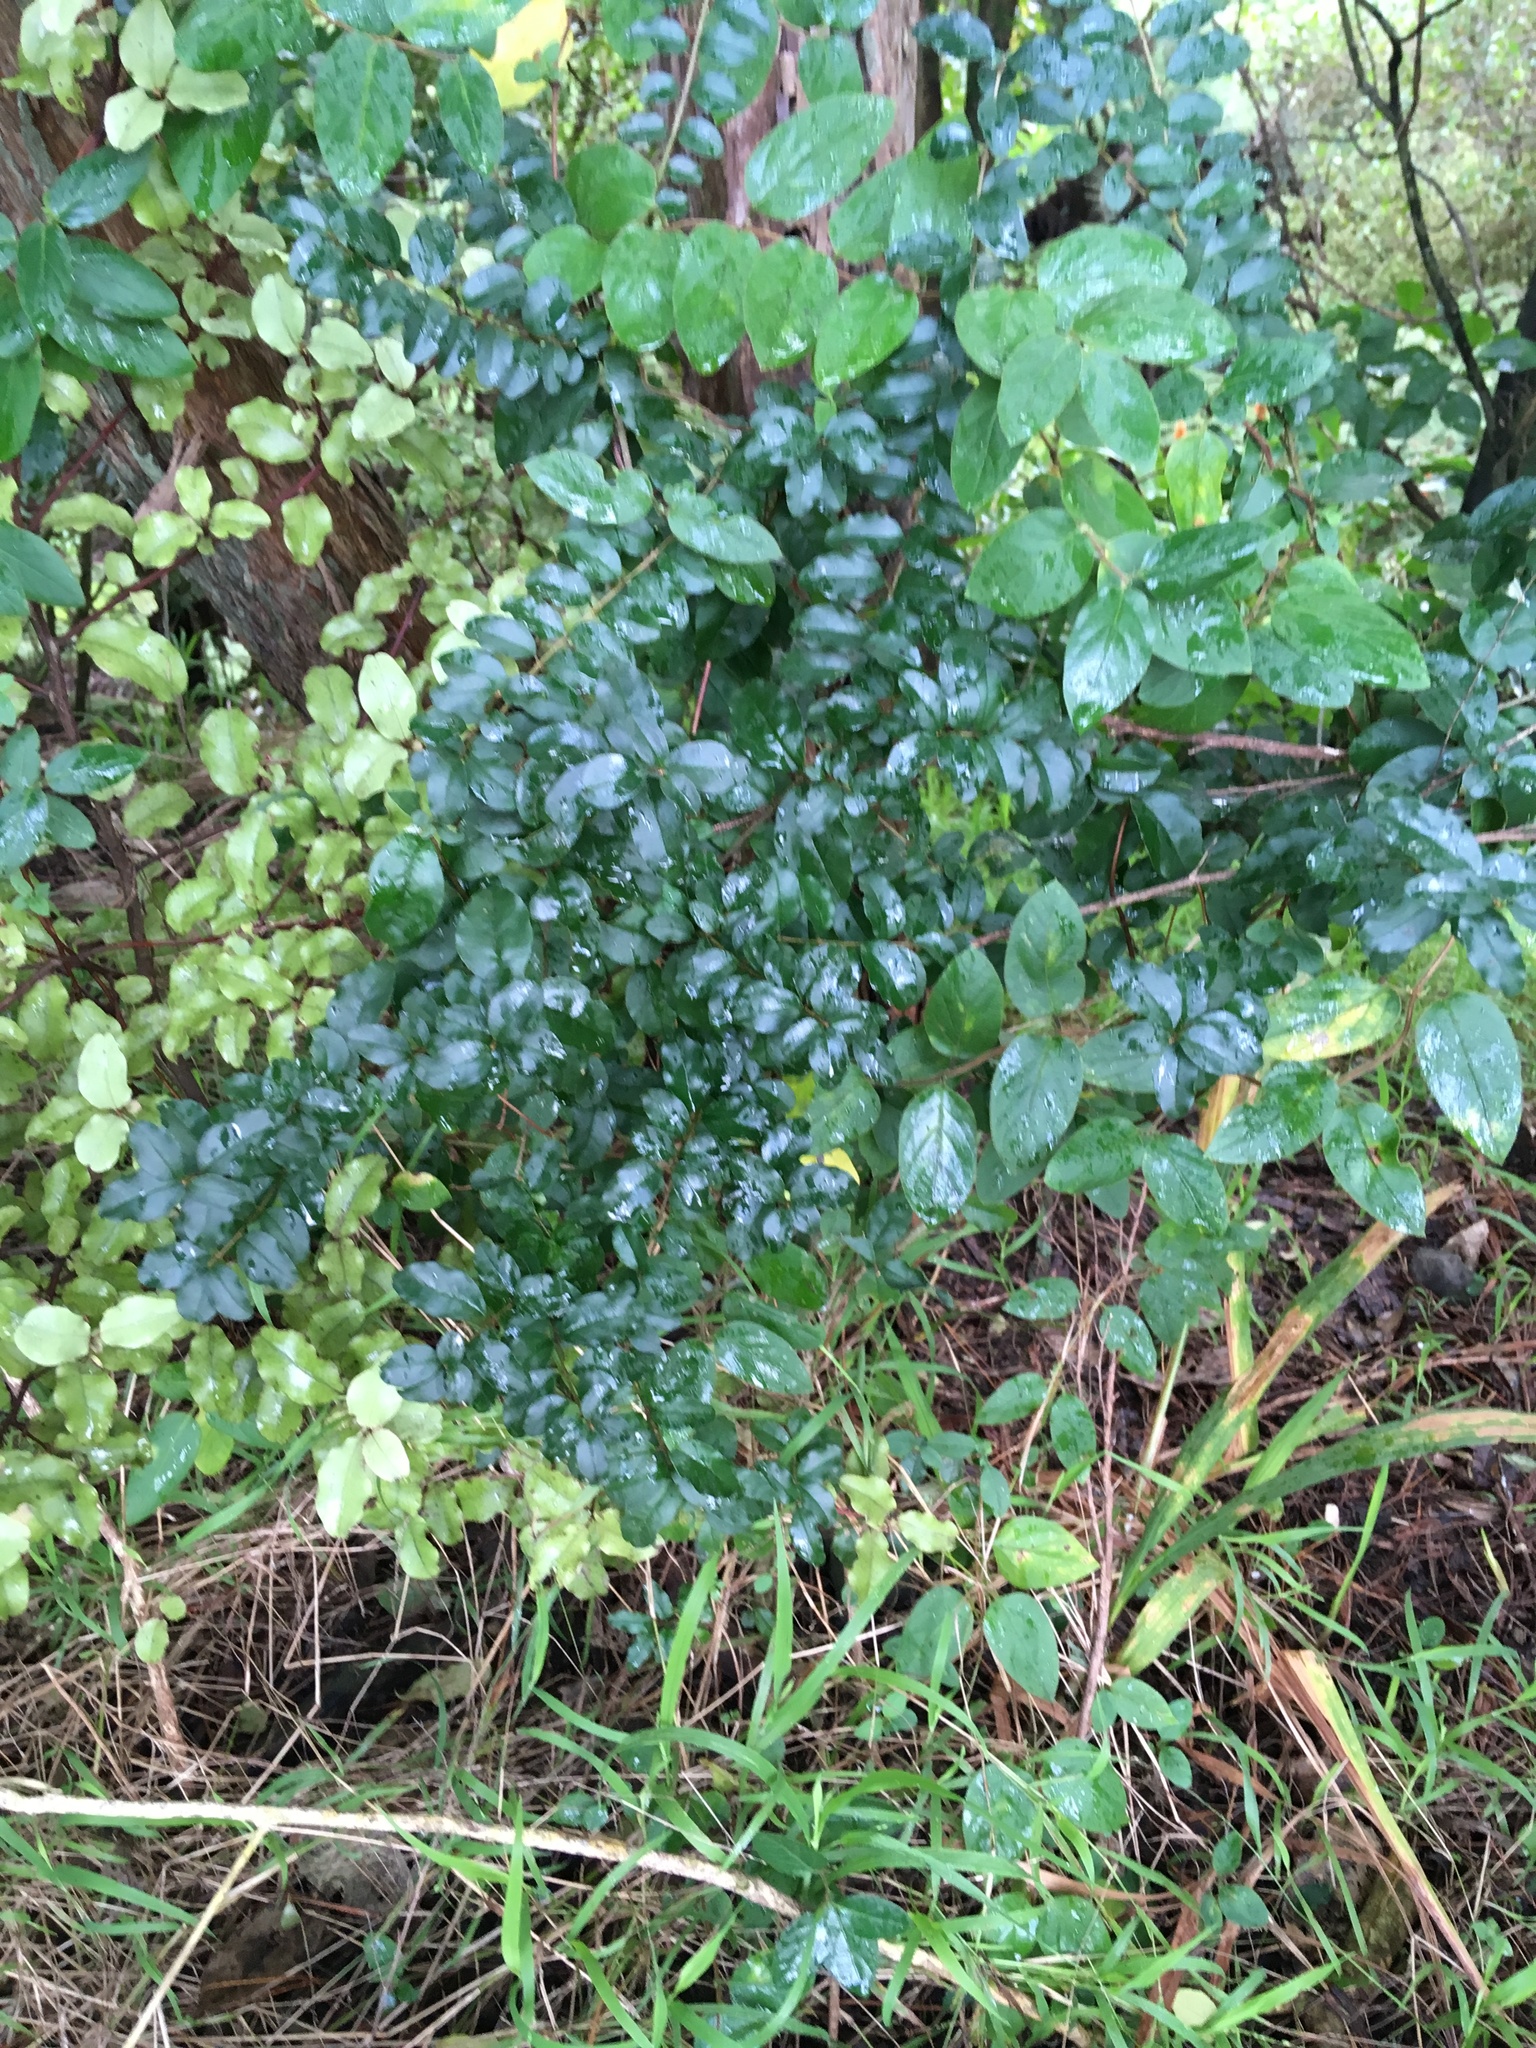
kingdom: Plantae
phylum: Tracheophyta
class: Magnoliopsida
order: Dipsacales
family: Caprifoliaceae
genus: Lonicera
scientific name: Lonicera japonica
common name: Japanese honeysuckle
